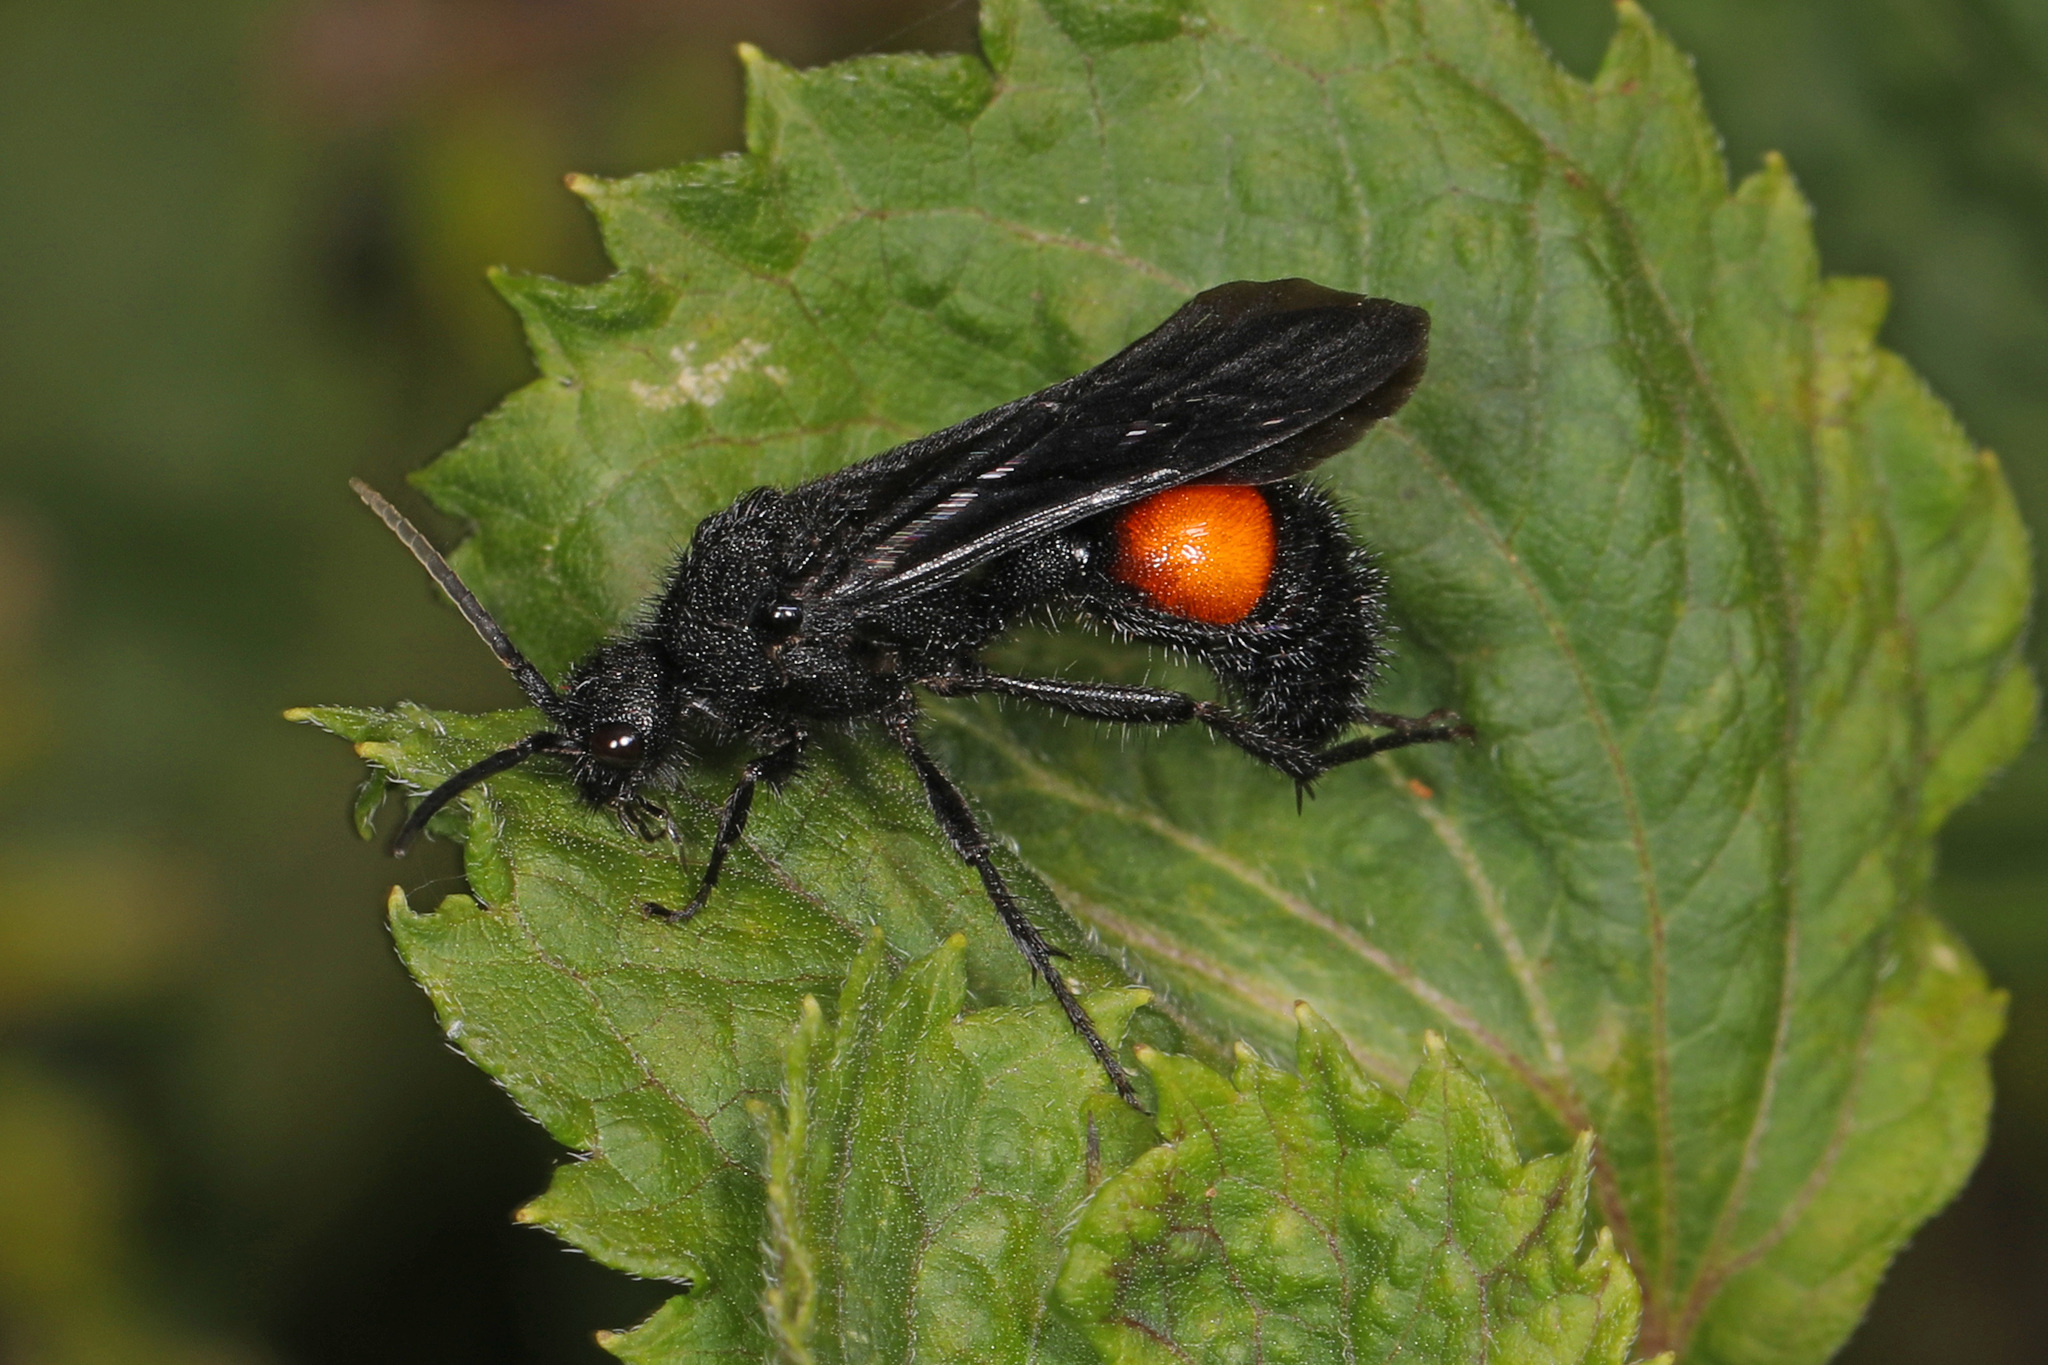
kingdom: Animalia
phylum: Arthropoda
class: Insecta
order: Hymenoptera
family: Mutillidae
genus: Dasymutilla
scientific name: Dasymutilla
